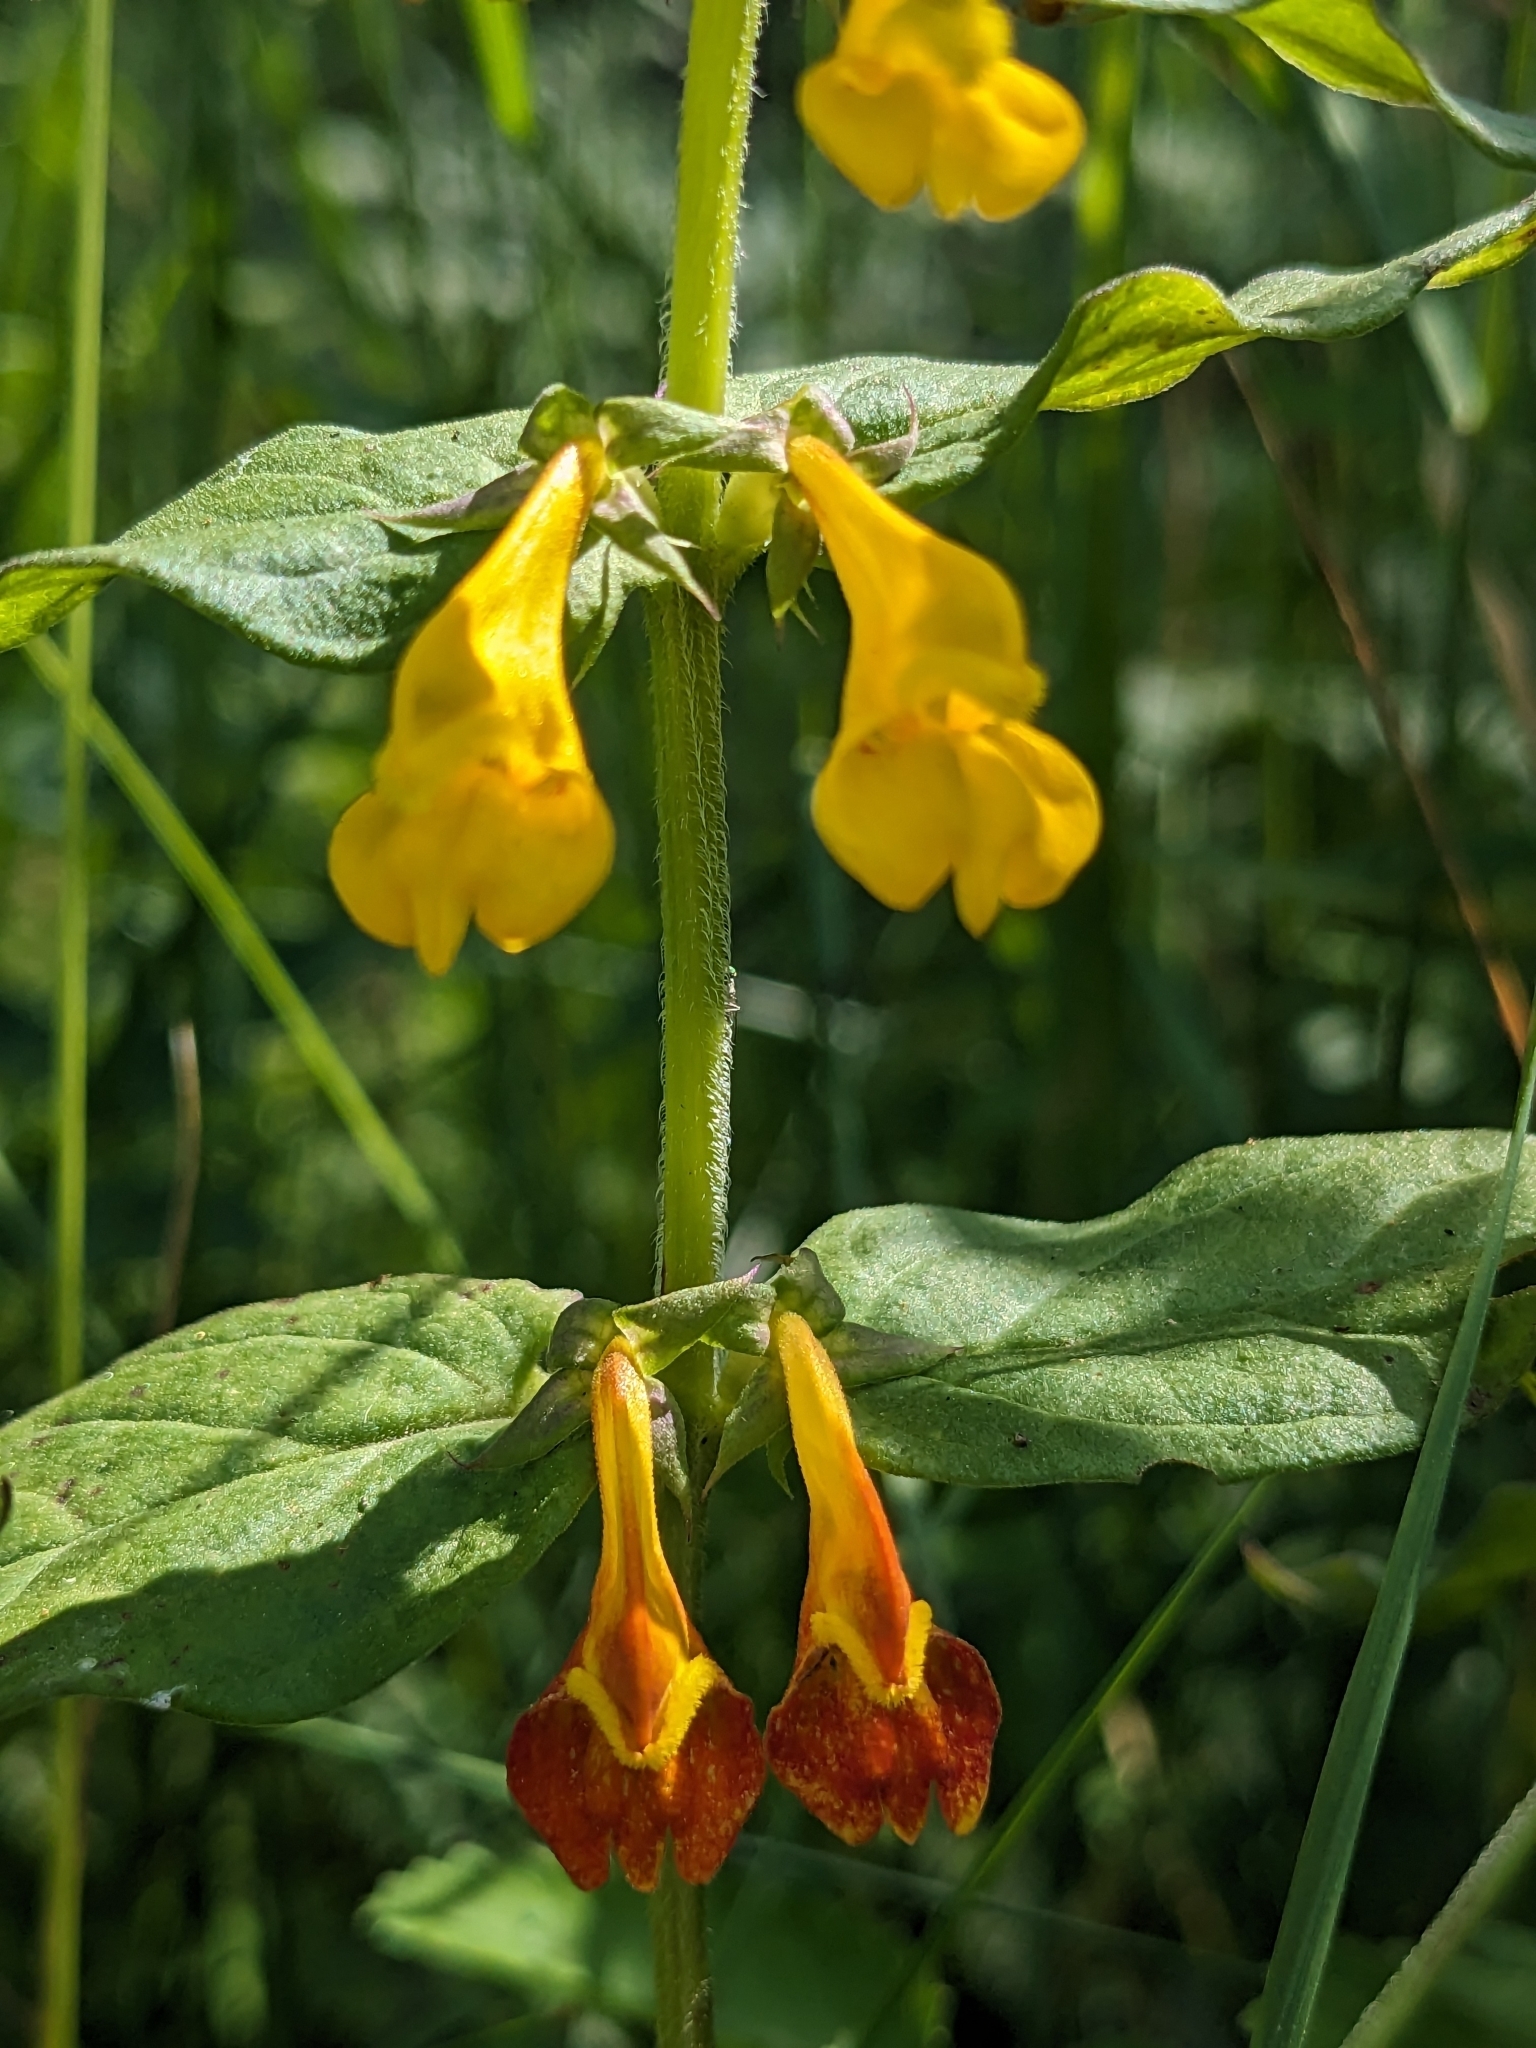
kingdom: Plantae
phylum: Tracheophyta
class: Magnoliopsida
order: Lamiales
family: Orobanchaceae
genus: Melampyrum
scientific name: Melampyrum nemorosum
